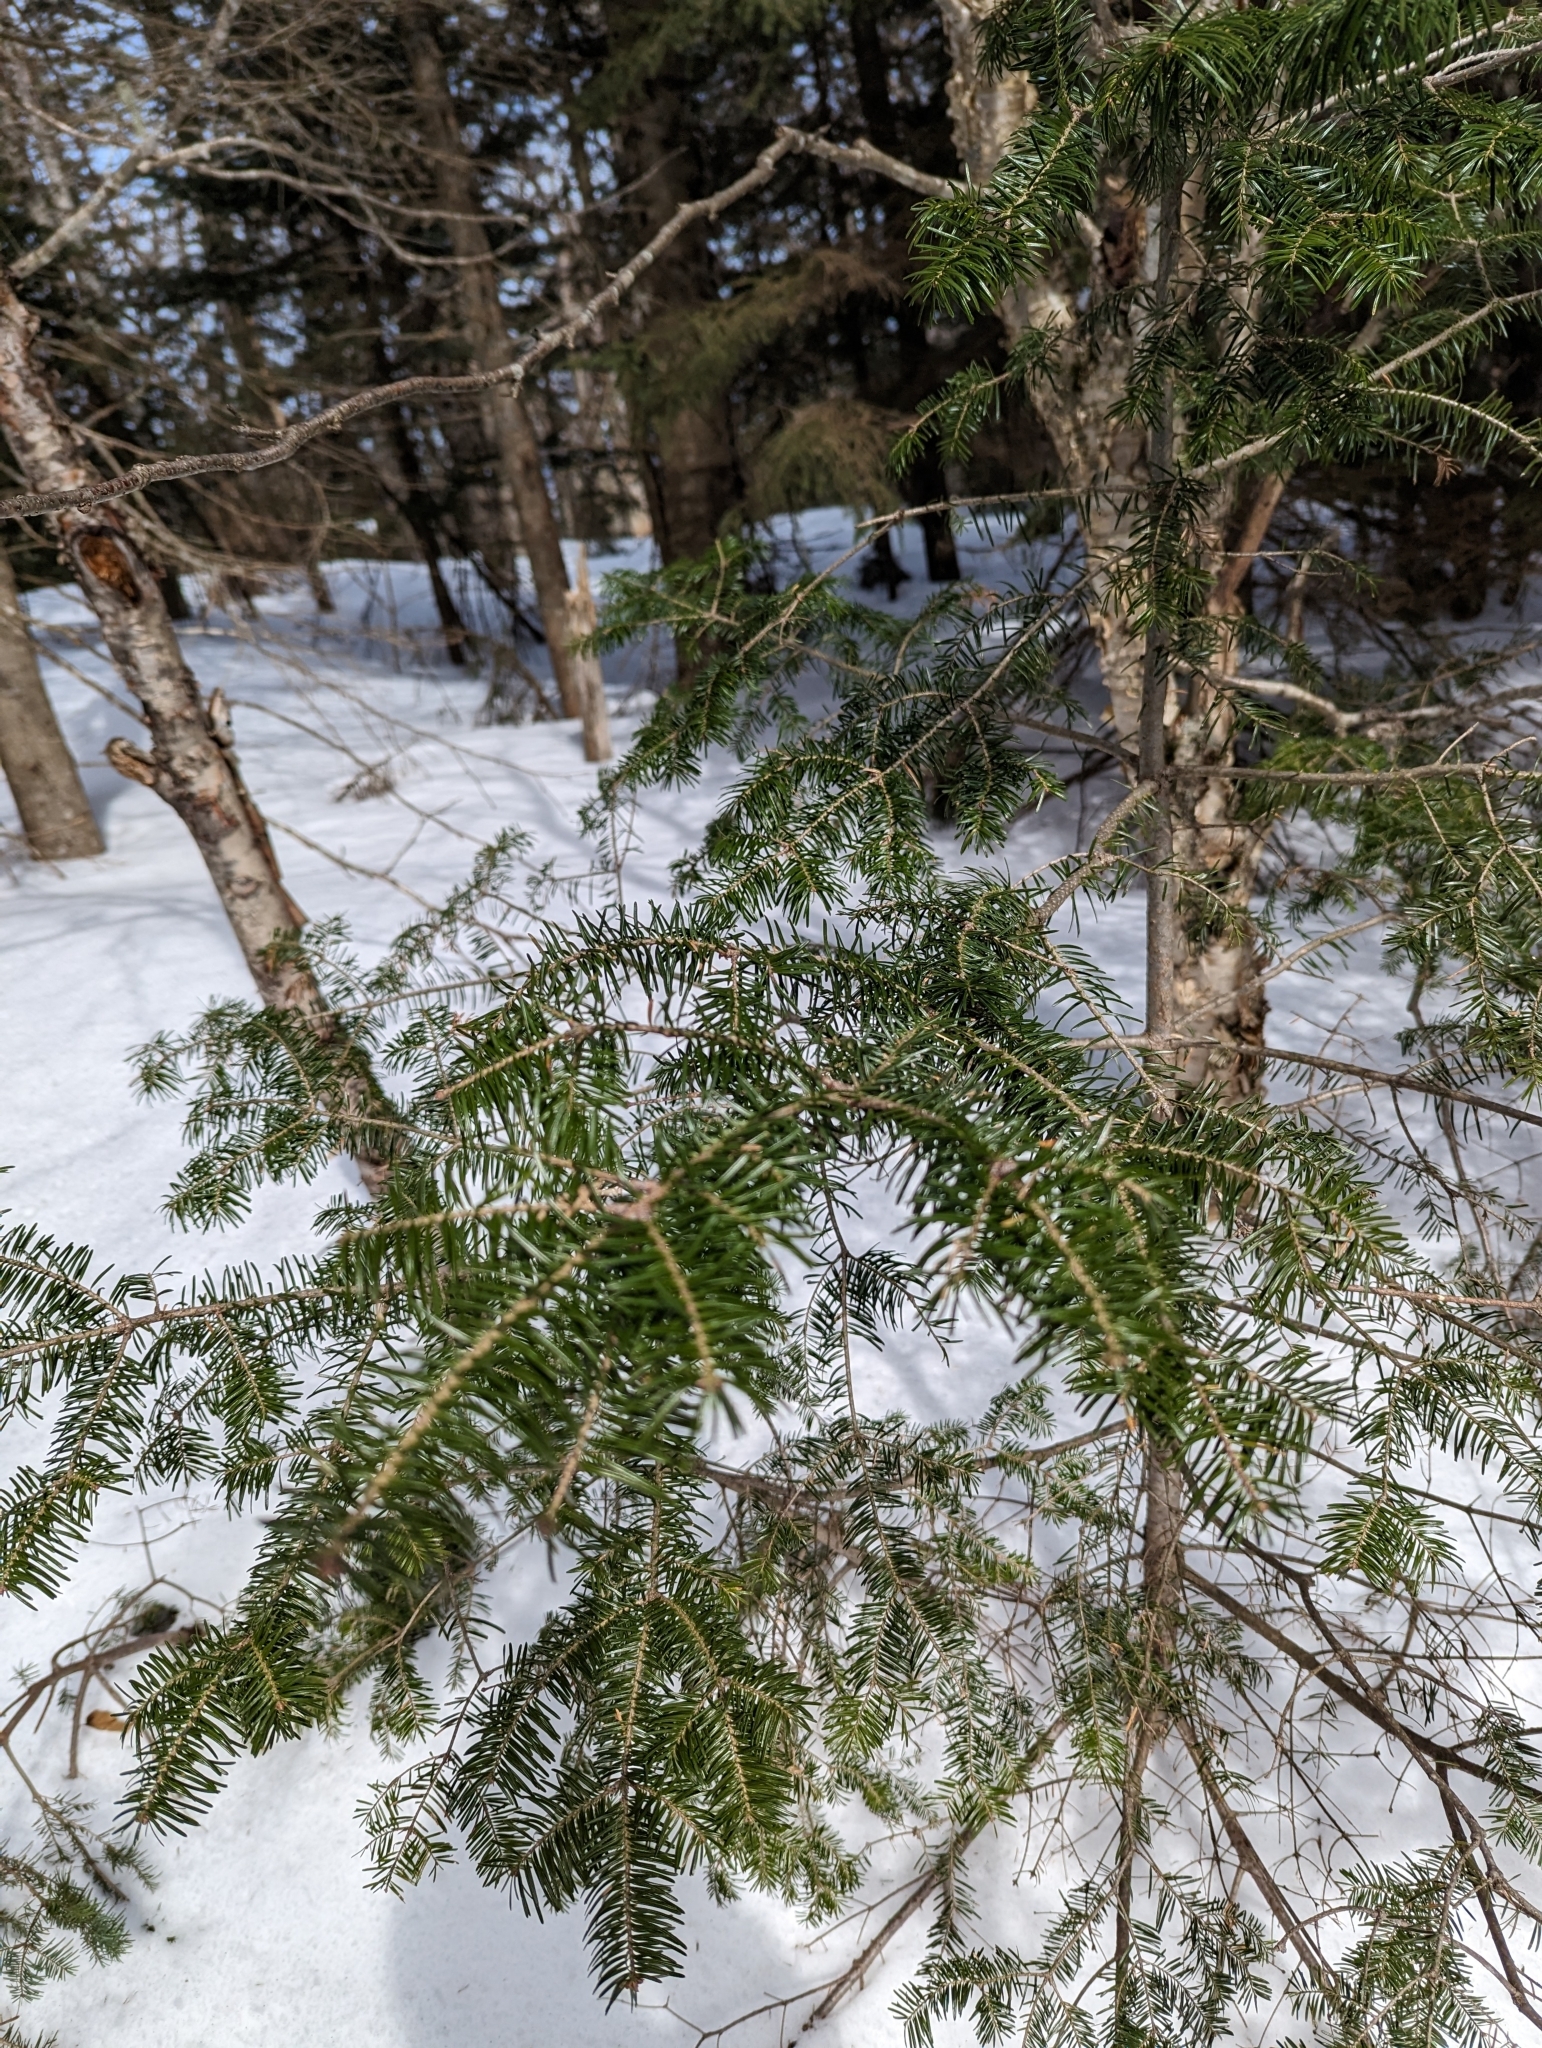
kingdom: Plantae
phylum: Tracheophyta
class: Pinopsida
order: Pinales
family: Pinaceae
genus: Abies
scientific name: Abies balsamea
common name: Balsam fir
